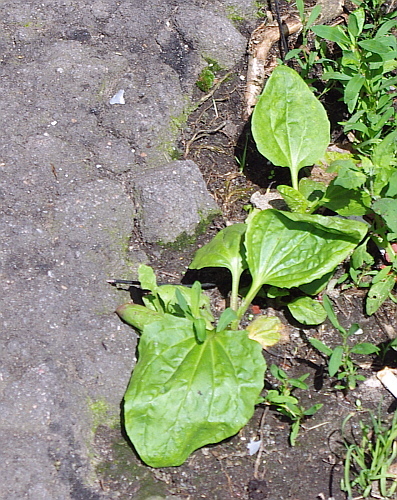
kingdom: Plantae
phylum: Tracheophyta
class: Magnoliopsida
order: Lamiales
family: Plantaginaceae
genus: Plantago
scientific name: Plantago major
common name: Common plantain
